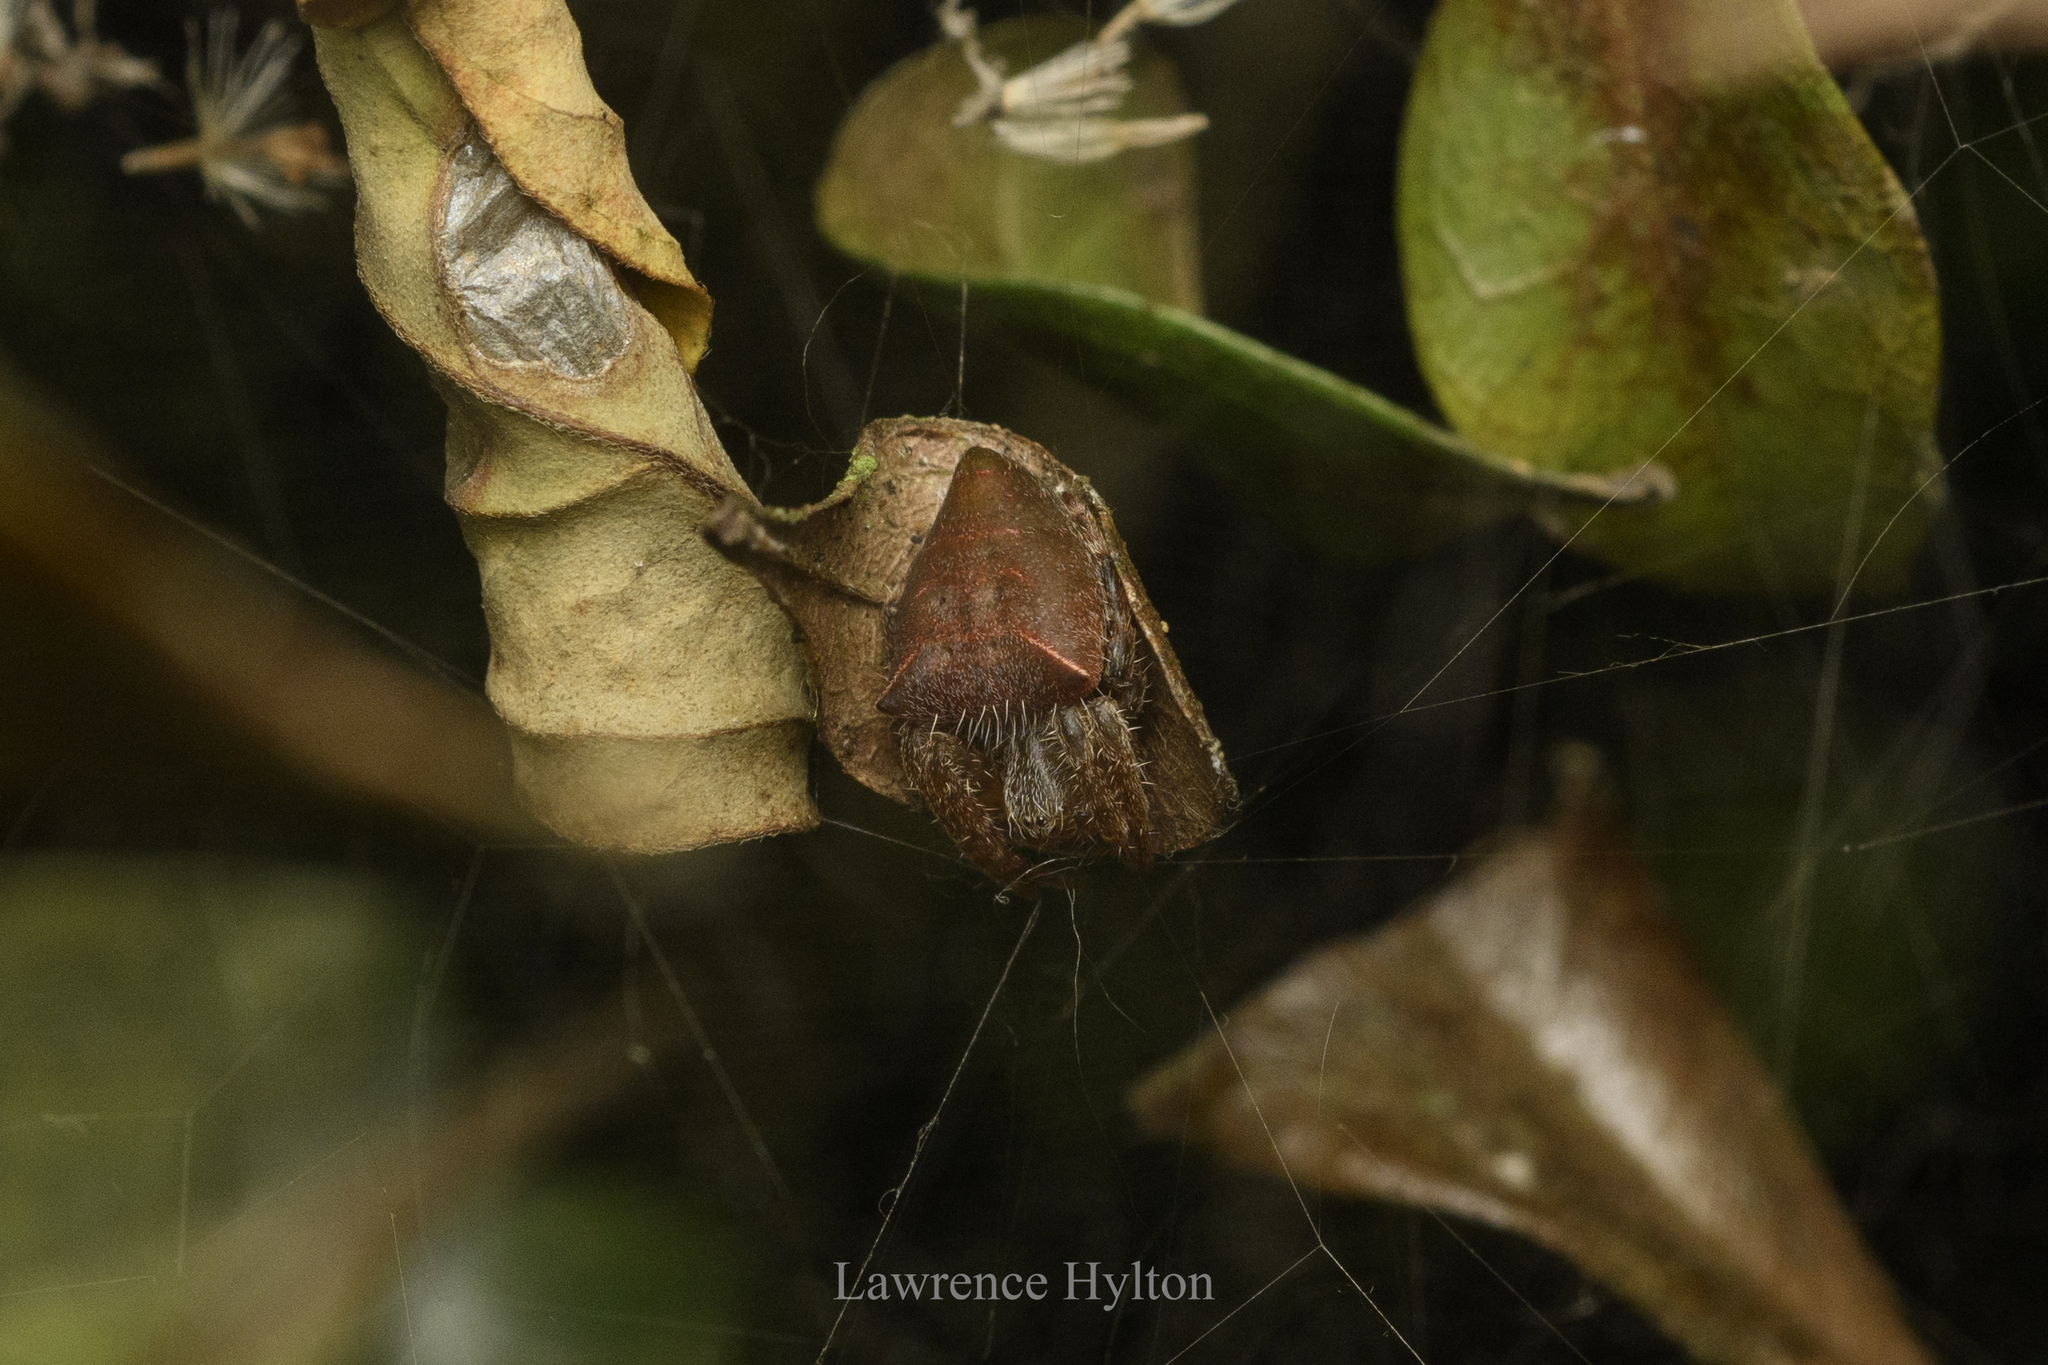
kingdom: Animalia
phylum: Arthropoda
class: Arachnida
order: Araneae
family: Araneidae
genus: Cyrtophora
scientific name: Cyrtophora unicolor
